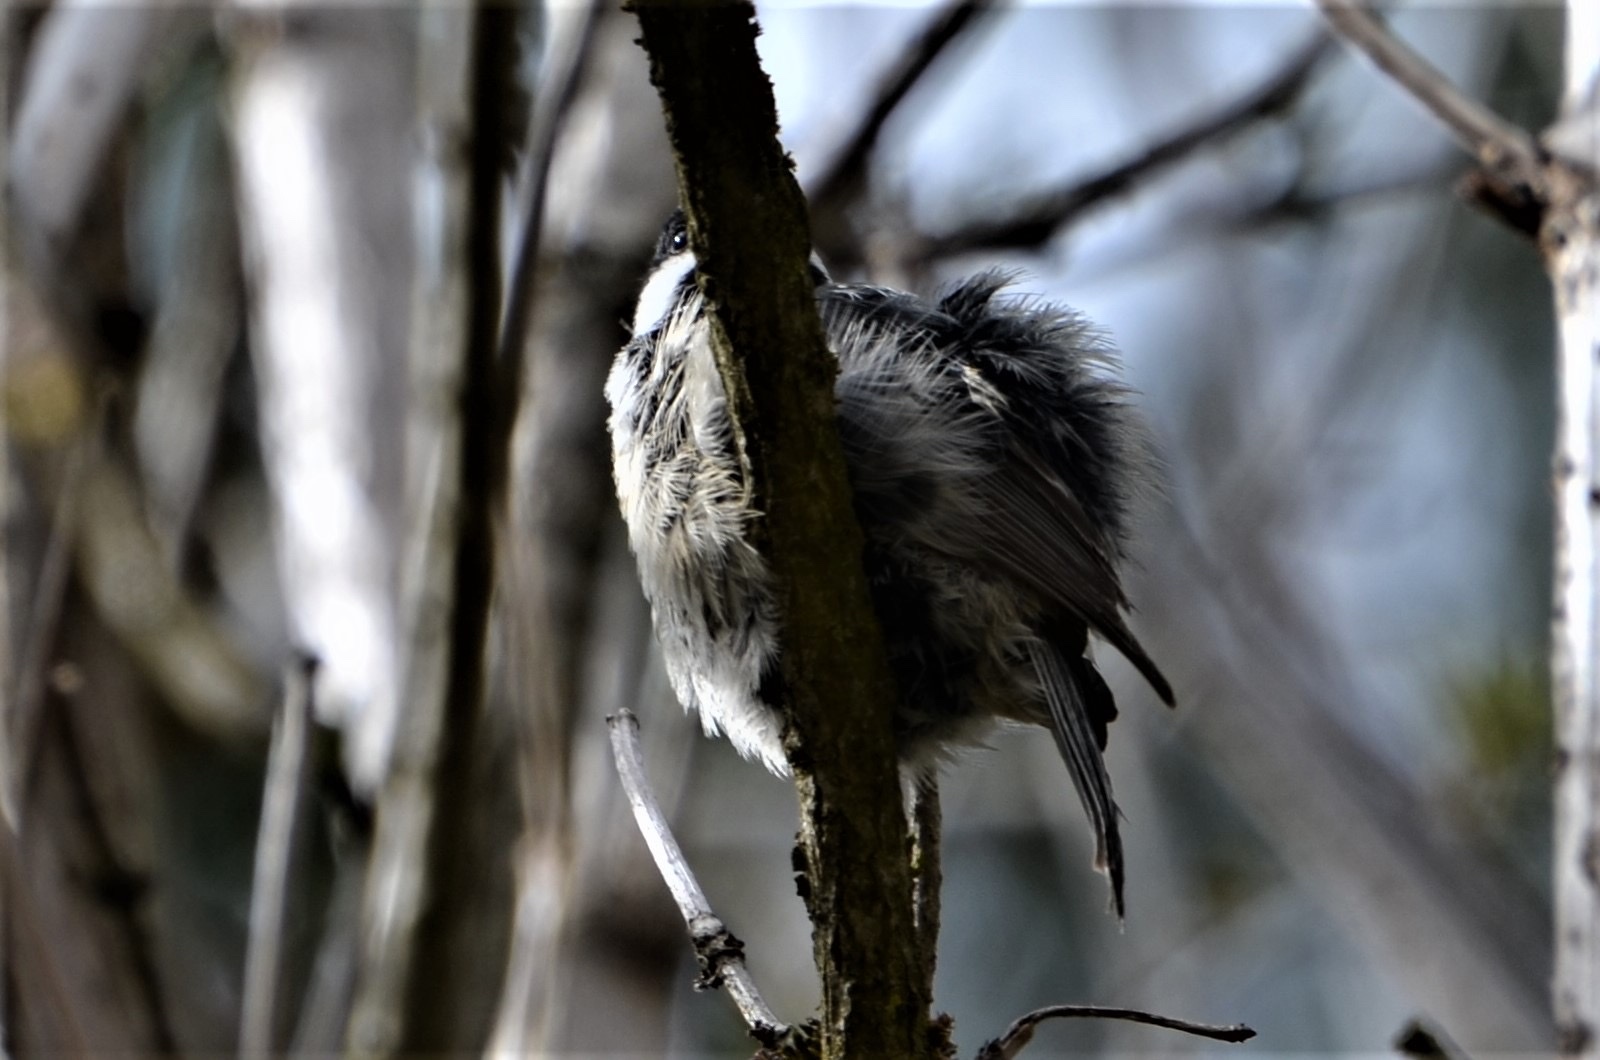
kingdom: Animalia
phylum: Chordata
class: Aves
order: Passeriformes
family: Paridae
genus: Periparus
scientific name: Periparus ater
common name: Coal tit
